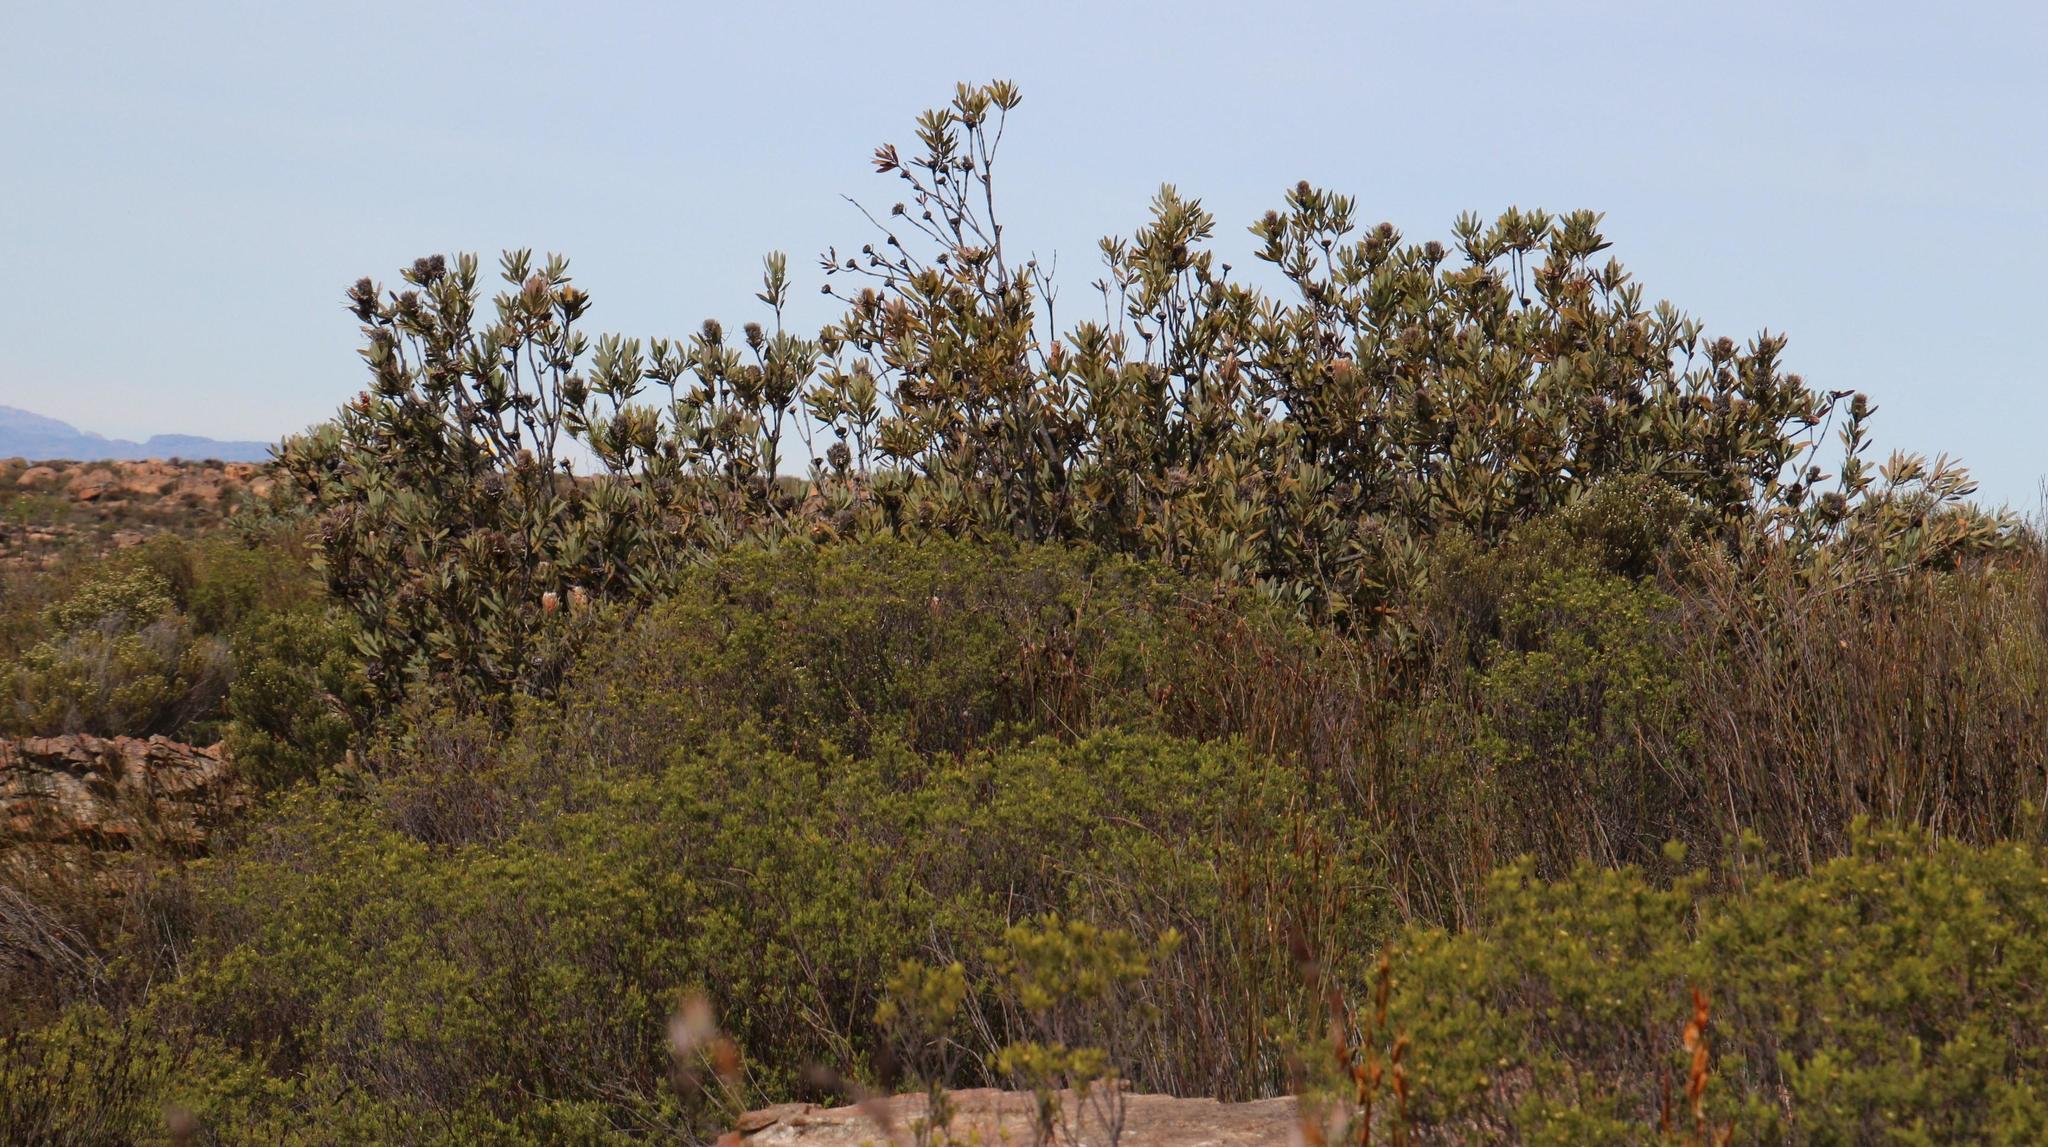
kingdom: Plantae
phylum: Tracheophyta
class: Magnoliopsida
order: Proteales
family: Proteaceae
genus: Protea
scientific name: Protea laurifolia
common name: Grey-leaf sugarbsh
